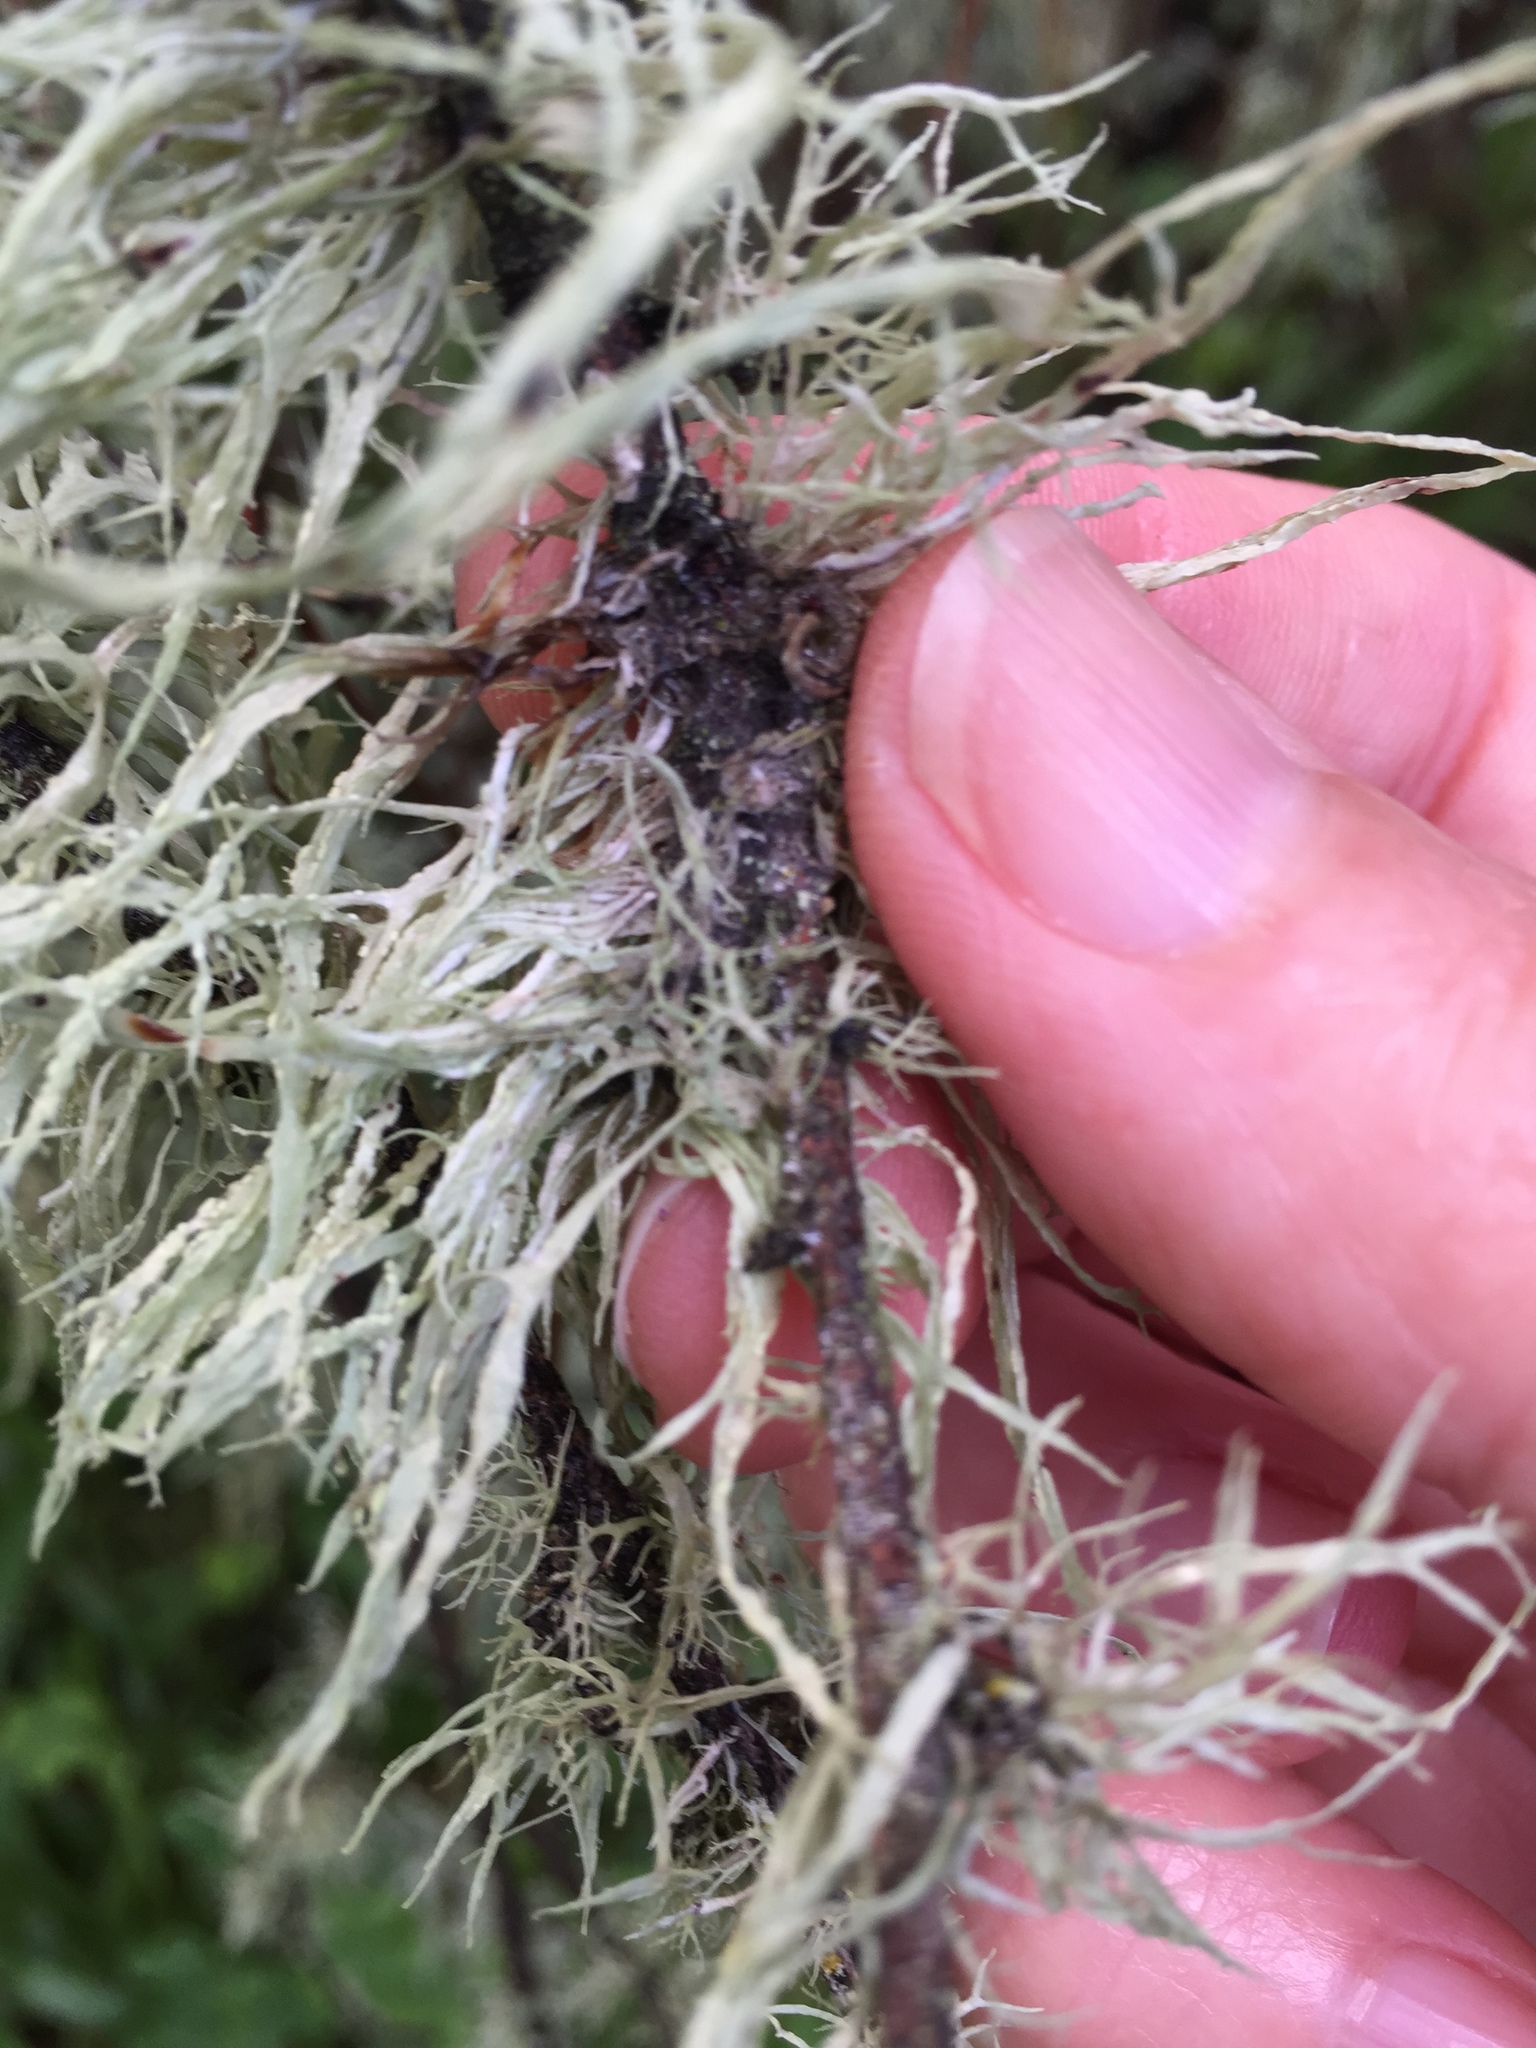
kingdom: Fungi
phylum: Ascomycota
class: Lecanoromycetes
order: Lecanorales
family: Ramalinaceae
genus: Ramalina
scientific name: Ramalina farinacea
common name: Farinose cartilage lichen
